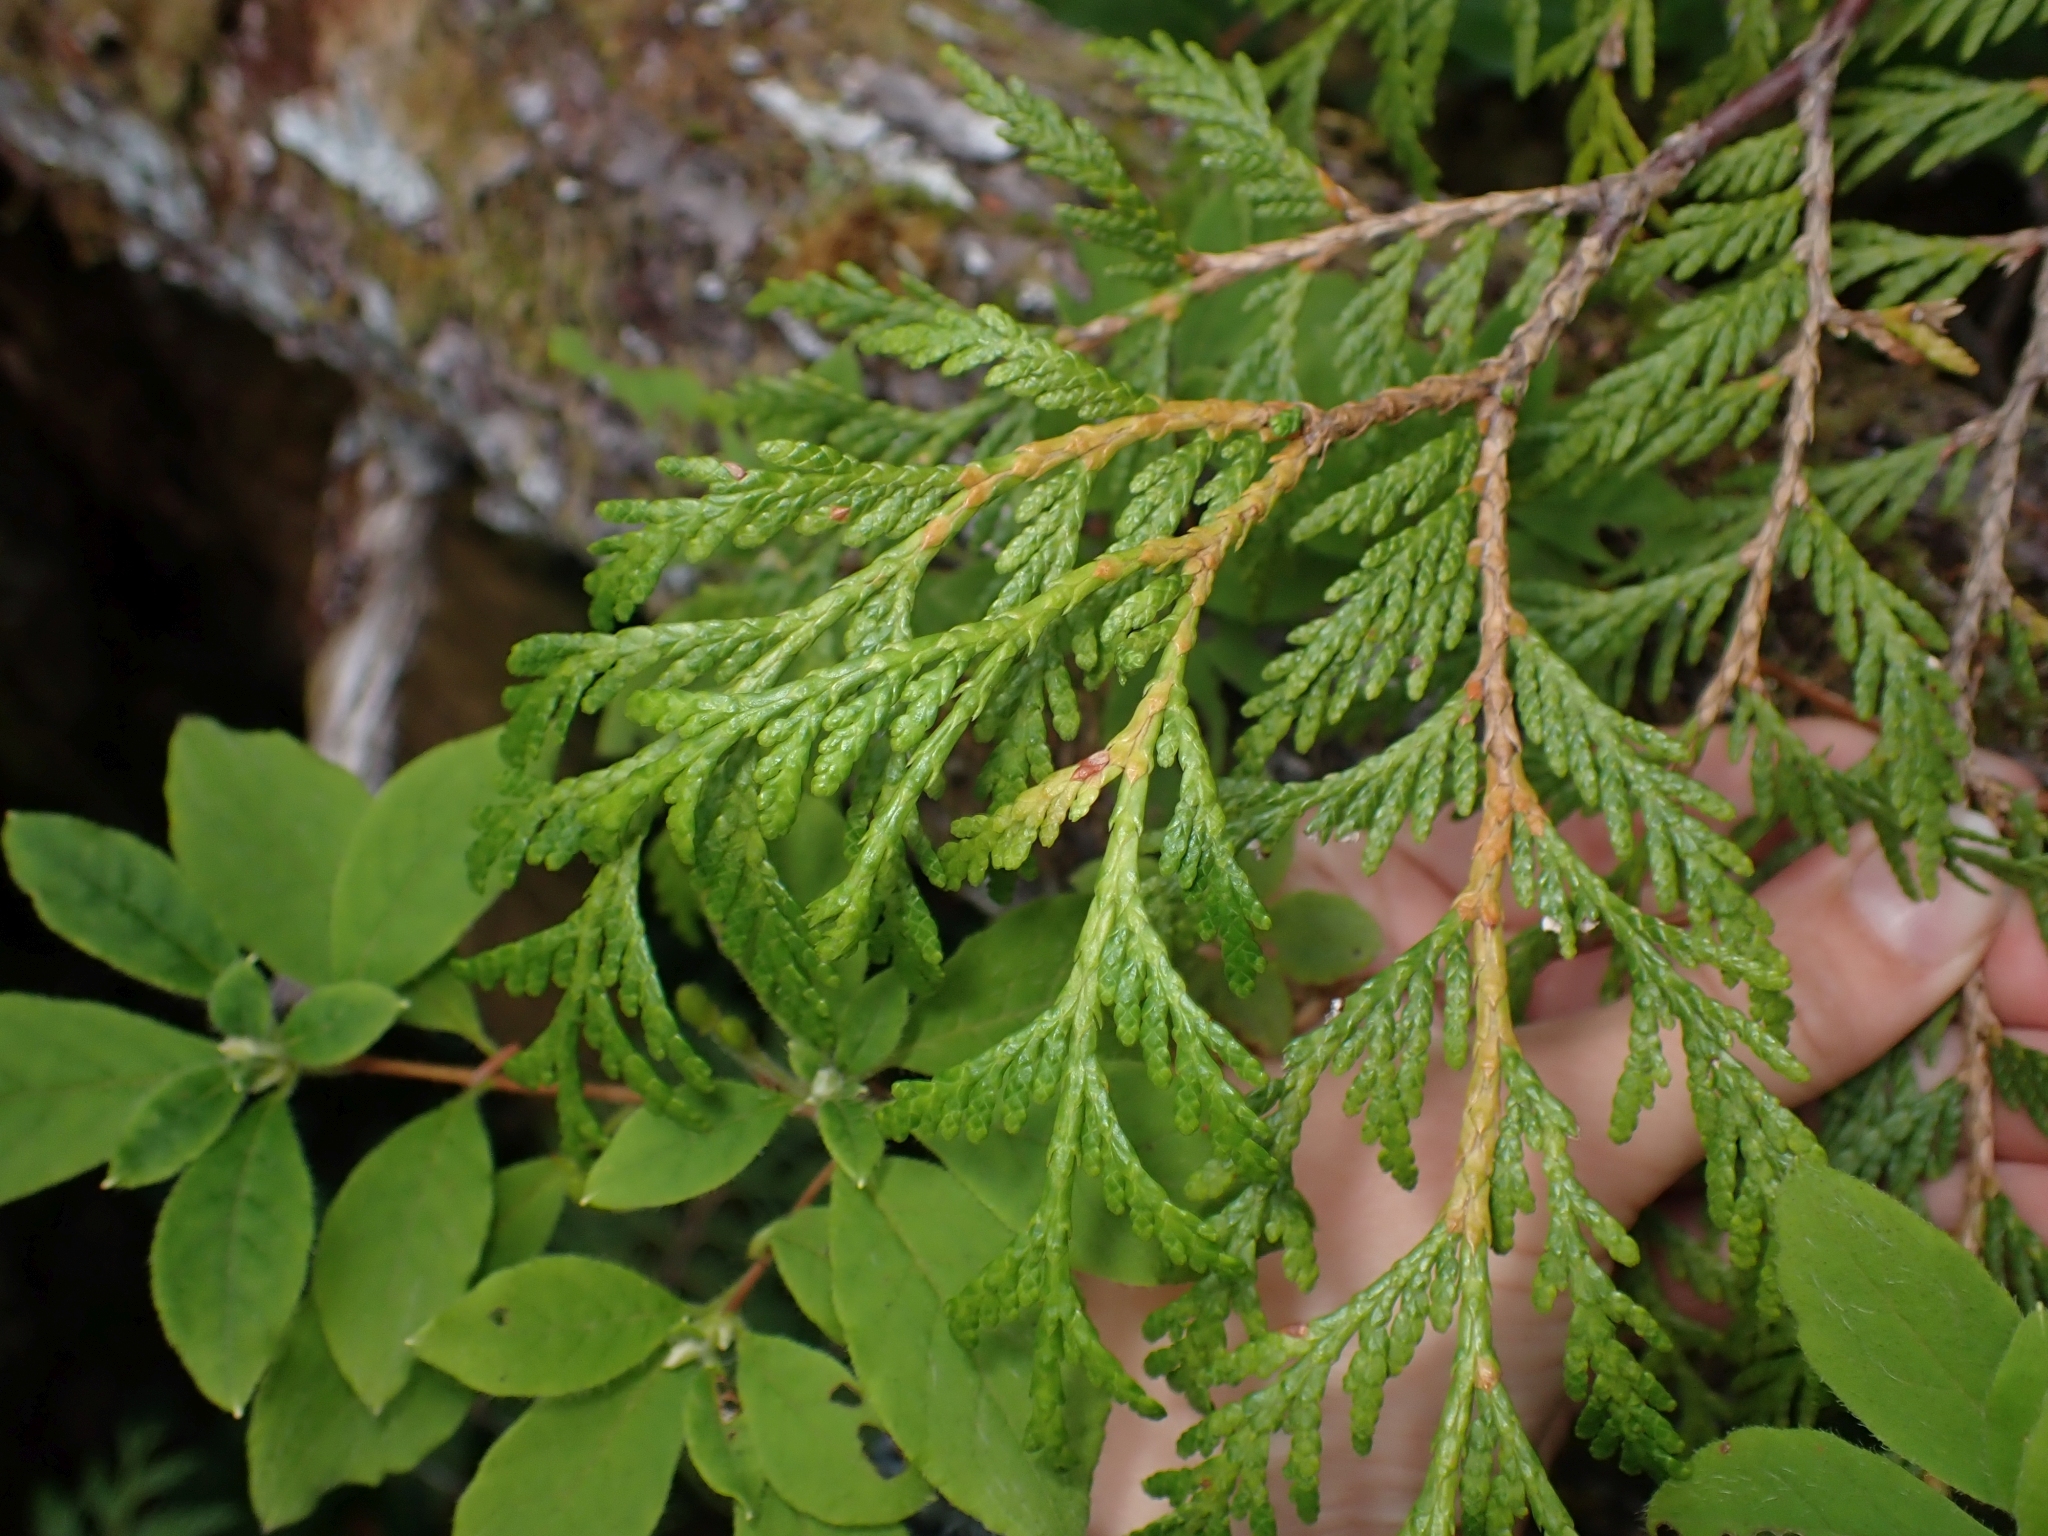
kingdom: Plantae
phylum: Tracheophyta
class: Pinopsida
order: Pinales
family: Cupressaceae
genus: Thuja
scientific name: Thuja plicata
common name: Western red-cedar
